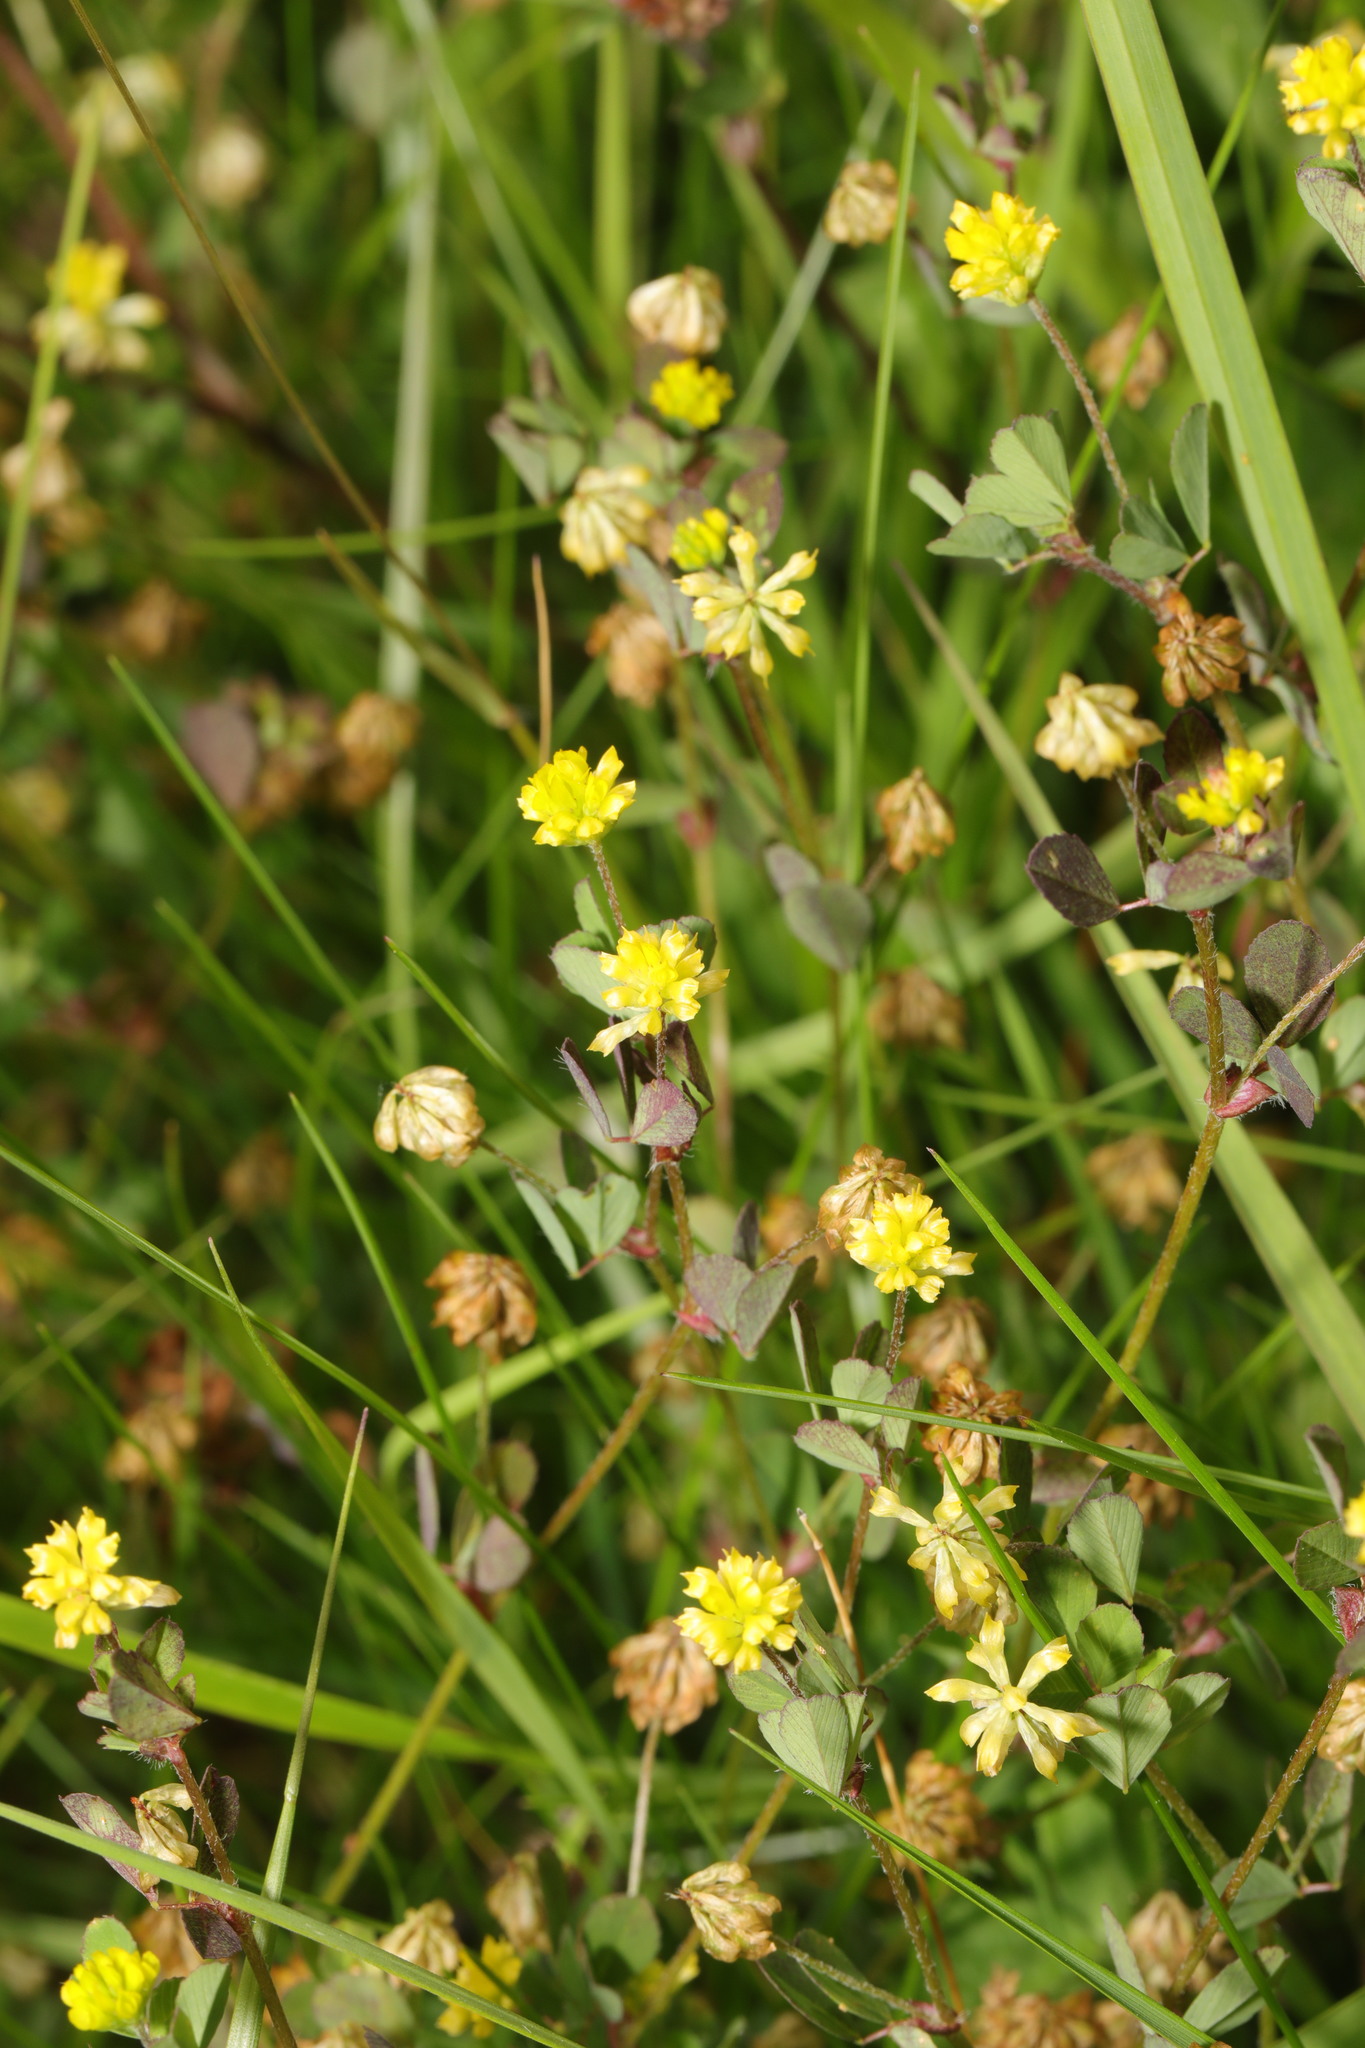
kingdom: Plantae
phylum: Tracheophyta
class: Magnoliopsida
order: Fabales
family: Fabaceae
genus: Trifolium
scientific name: Trifolium dubium
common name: Suckling clover
